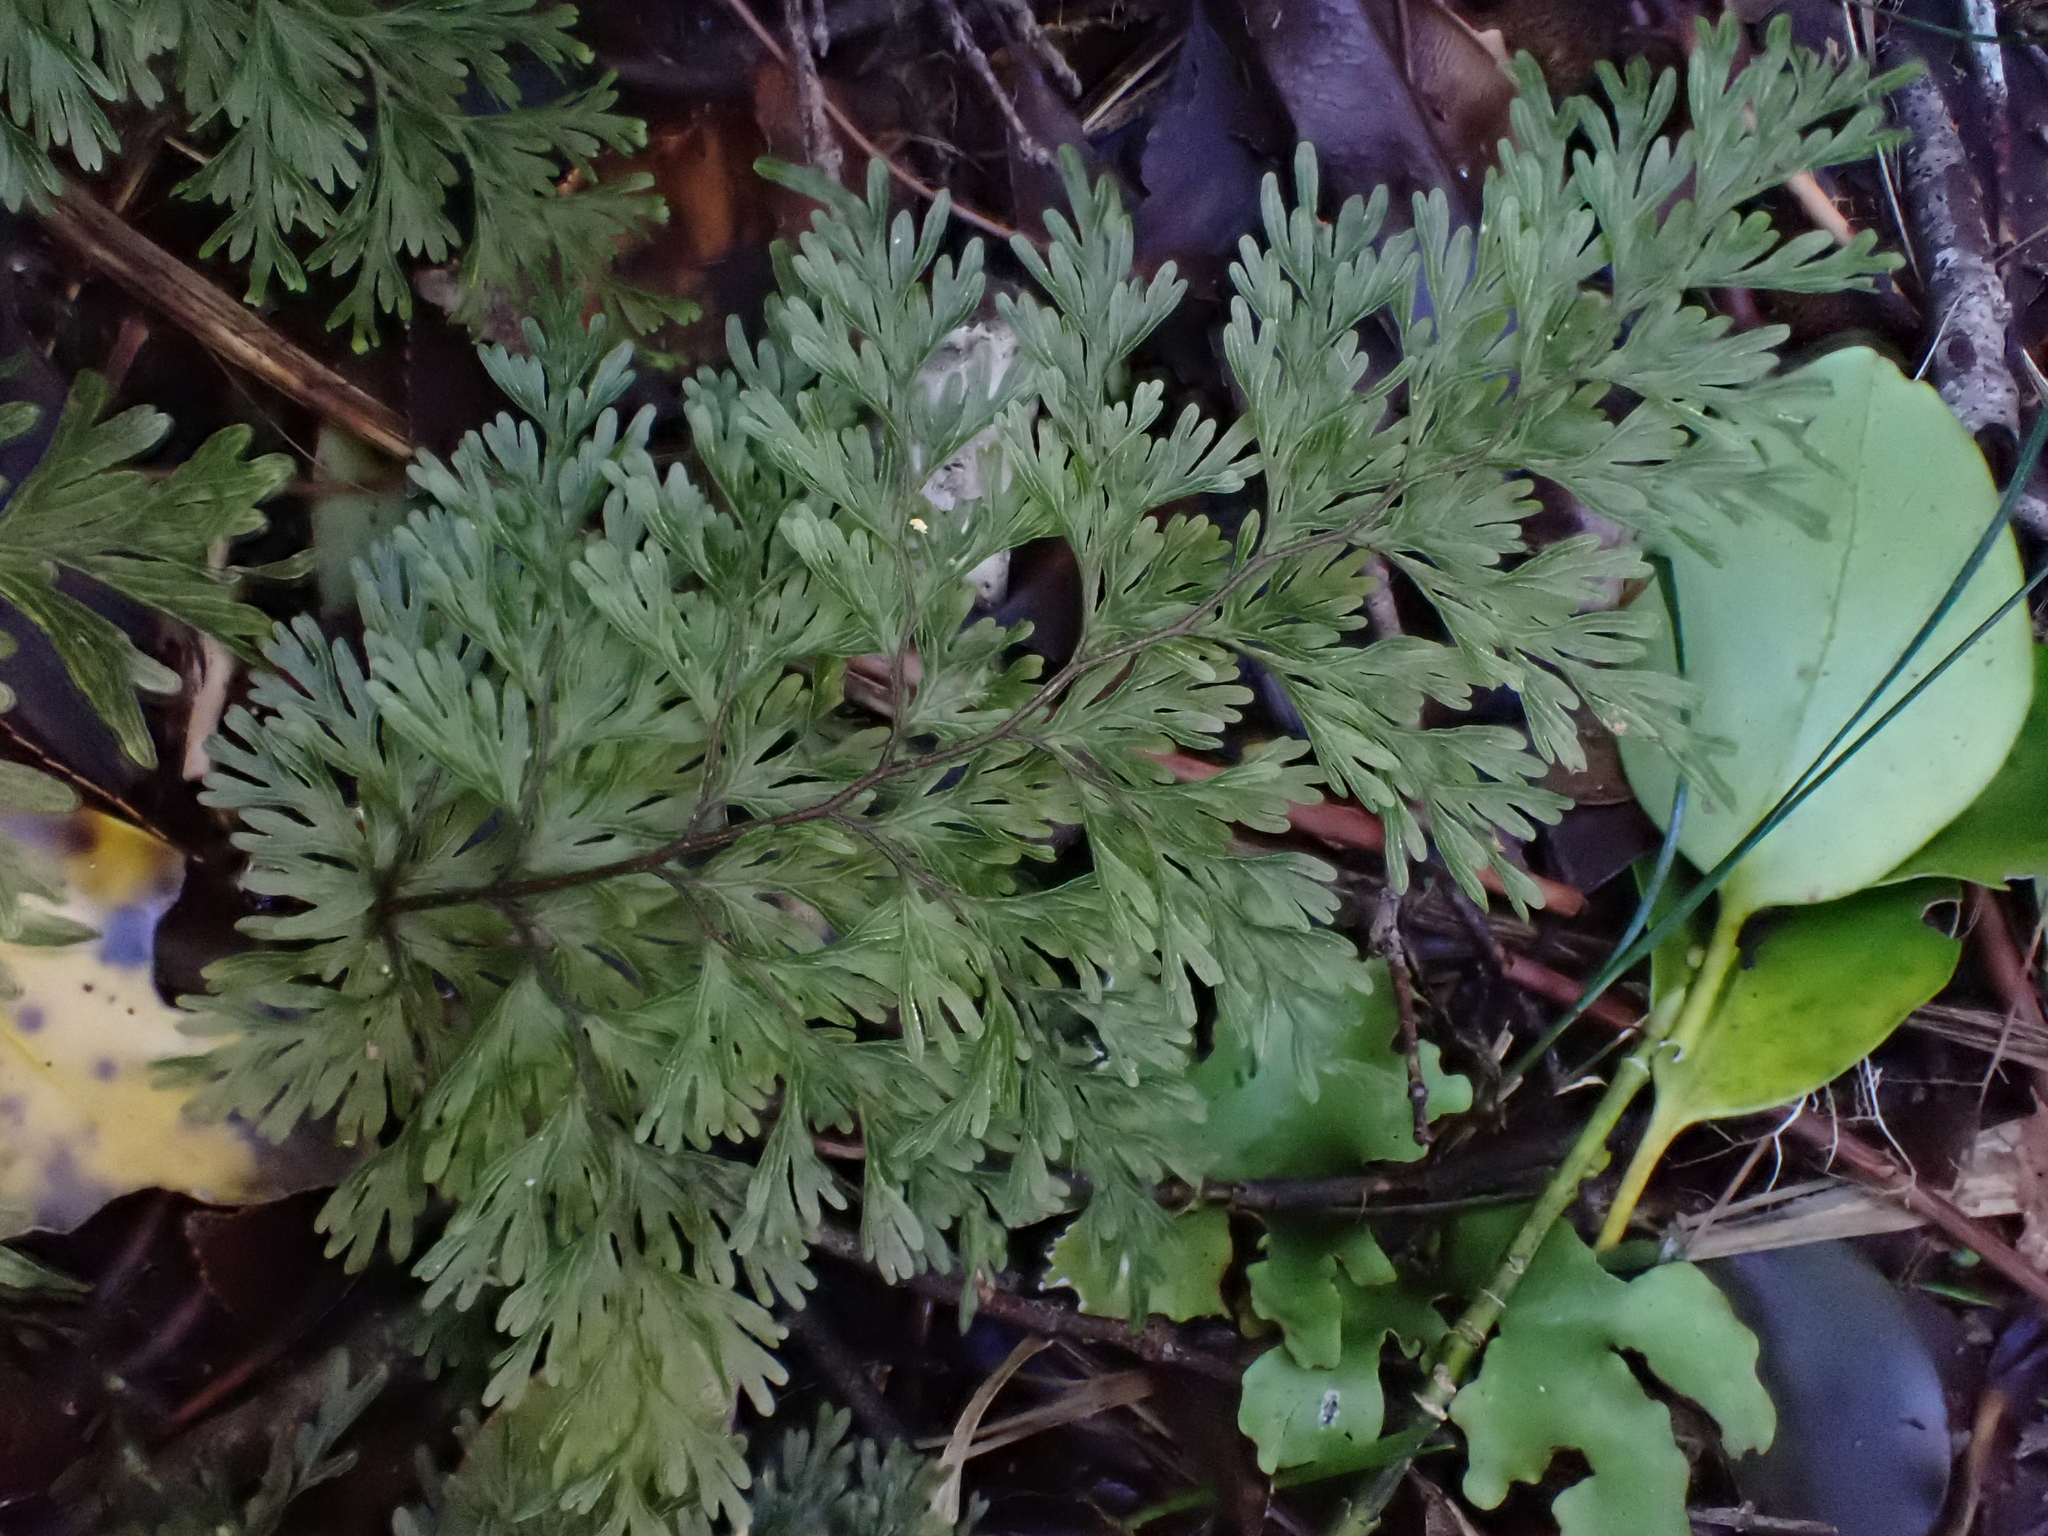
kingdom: Plantae
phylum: Tracheophyta
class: Polypodiopsida
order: Hymenophyllales
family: Hymenophyllaceae
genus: Hymenophyllum
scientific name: Hymenophyllum demissum
